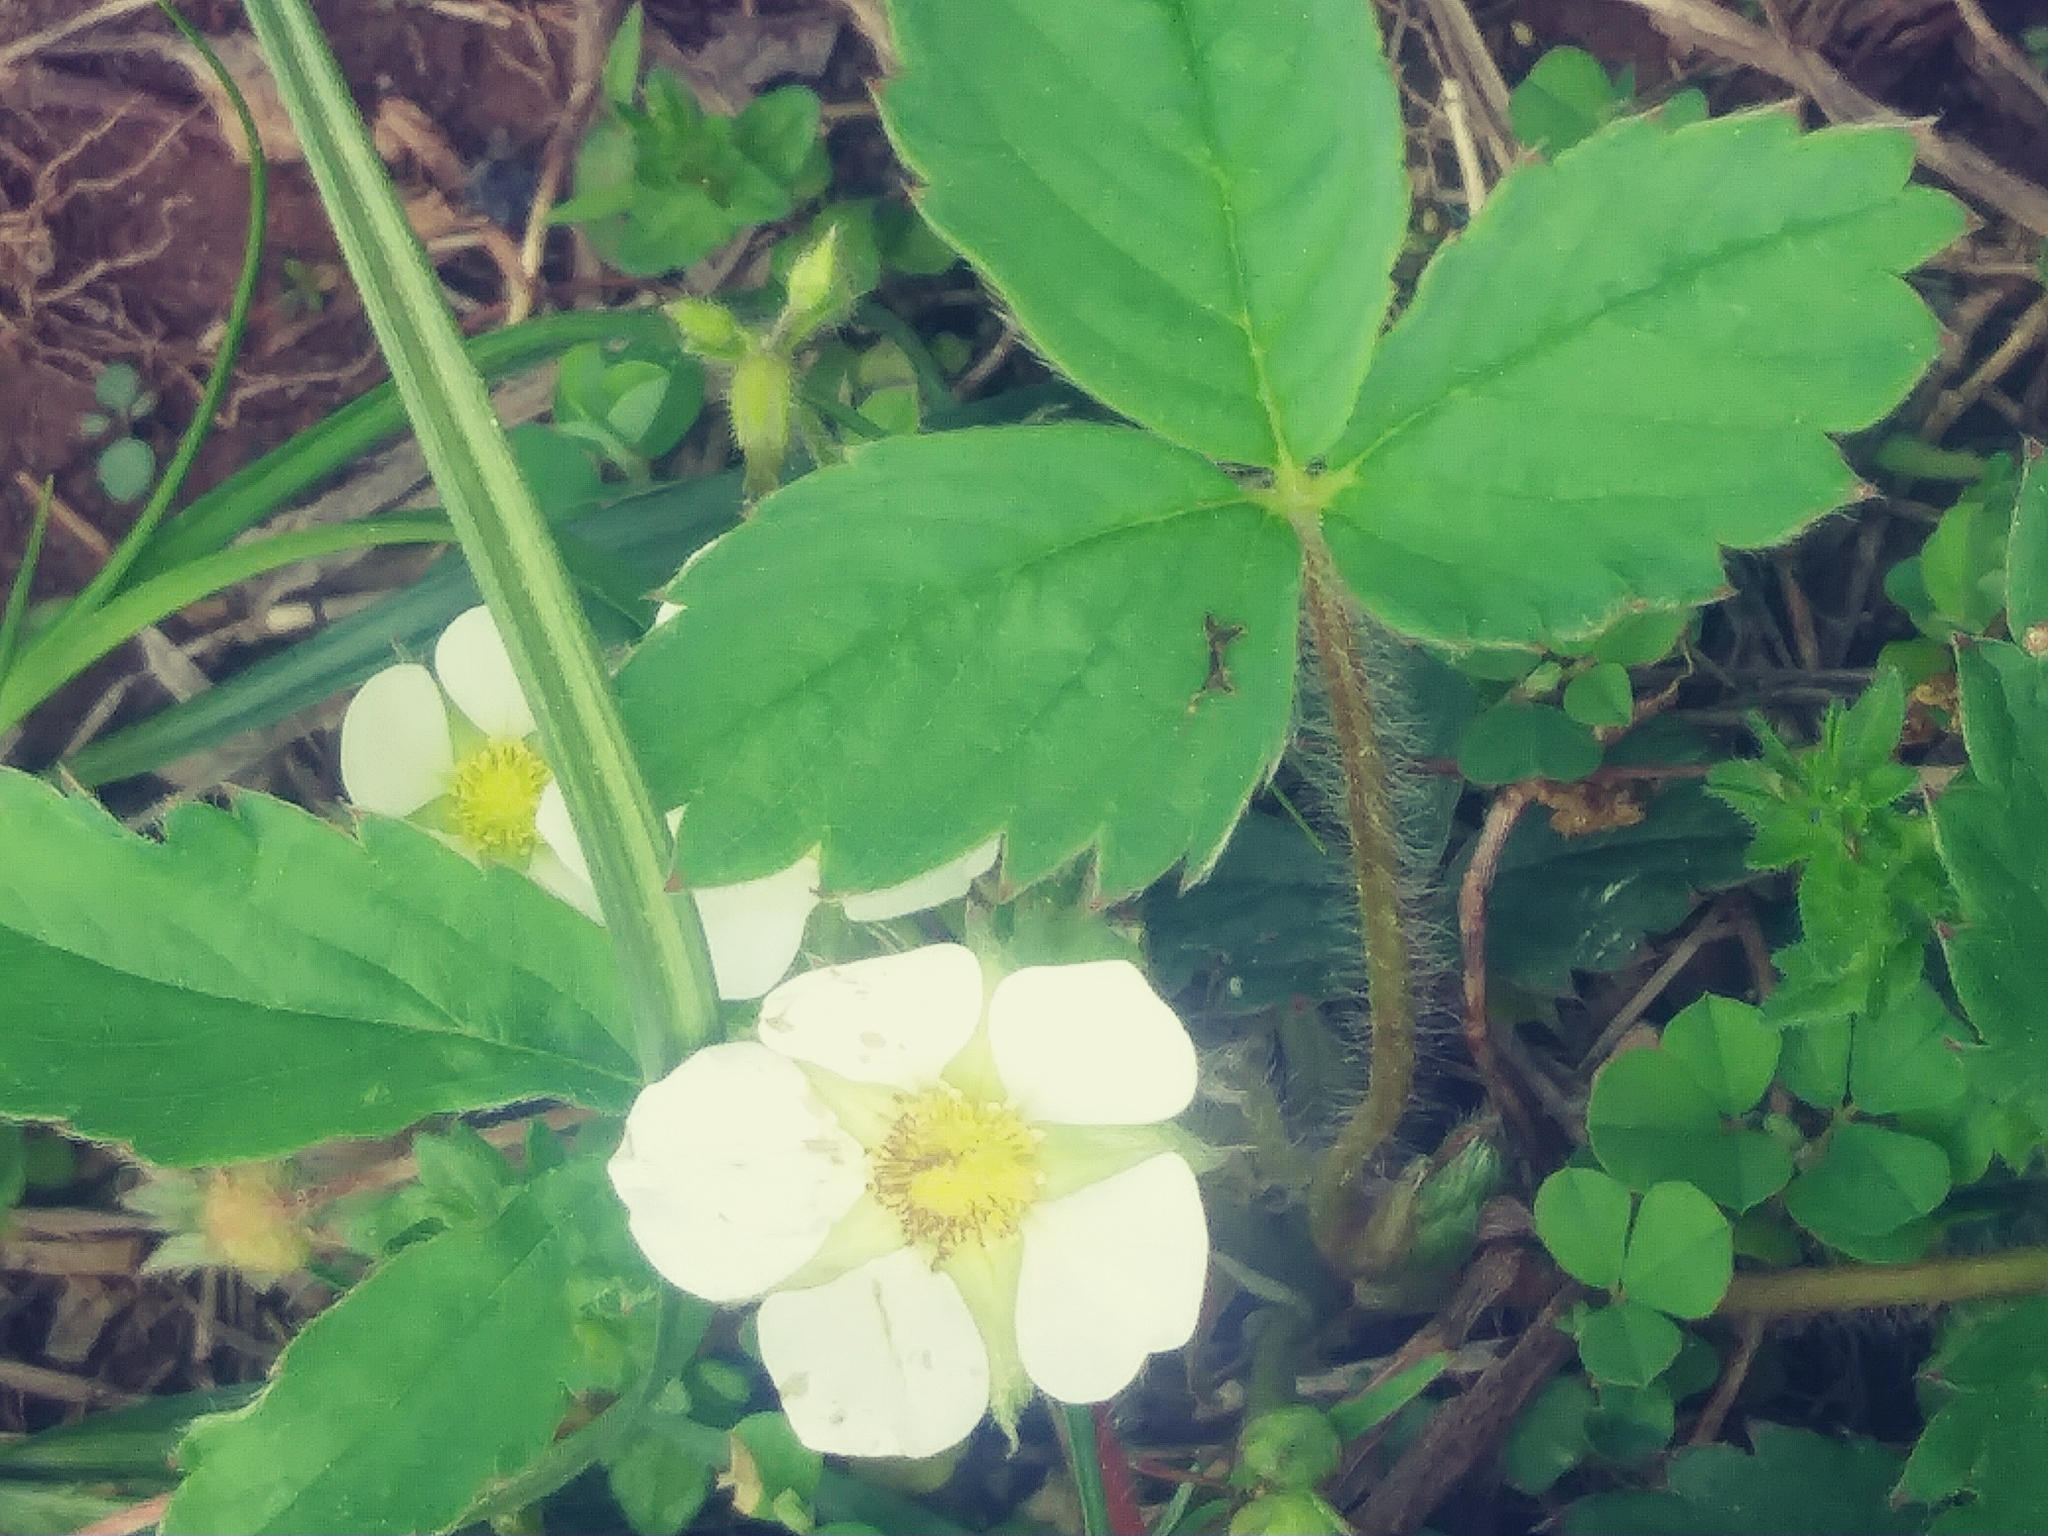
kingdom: Plantae
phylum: Tracheophyta
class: Magnoliopsida
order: Rosales
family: Rosaceae
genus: Fragaria
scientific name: Fragaria vesca
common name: Wild strawberry
